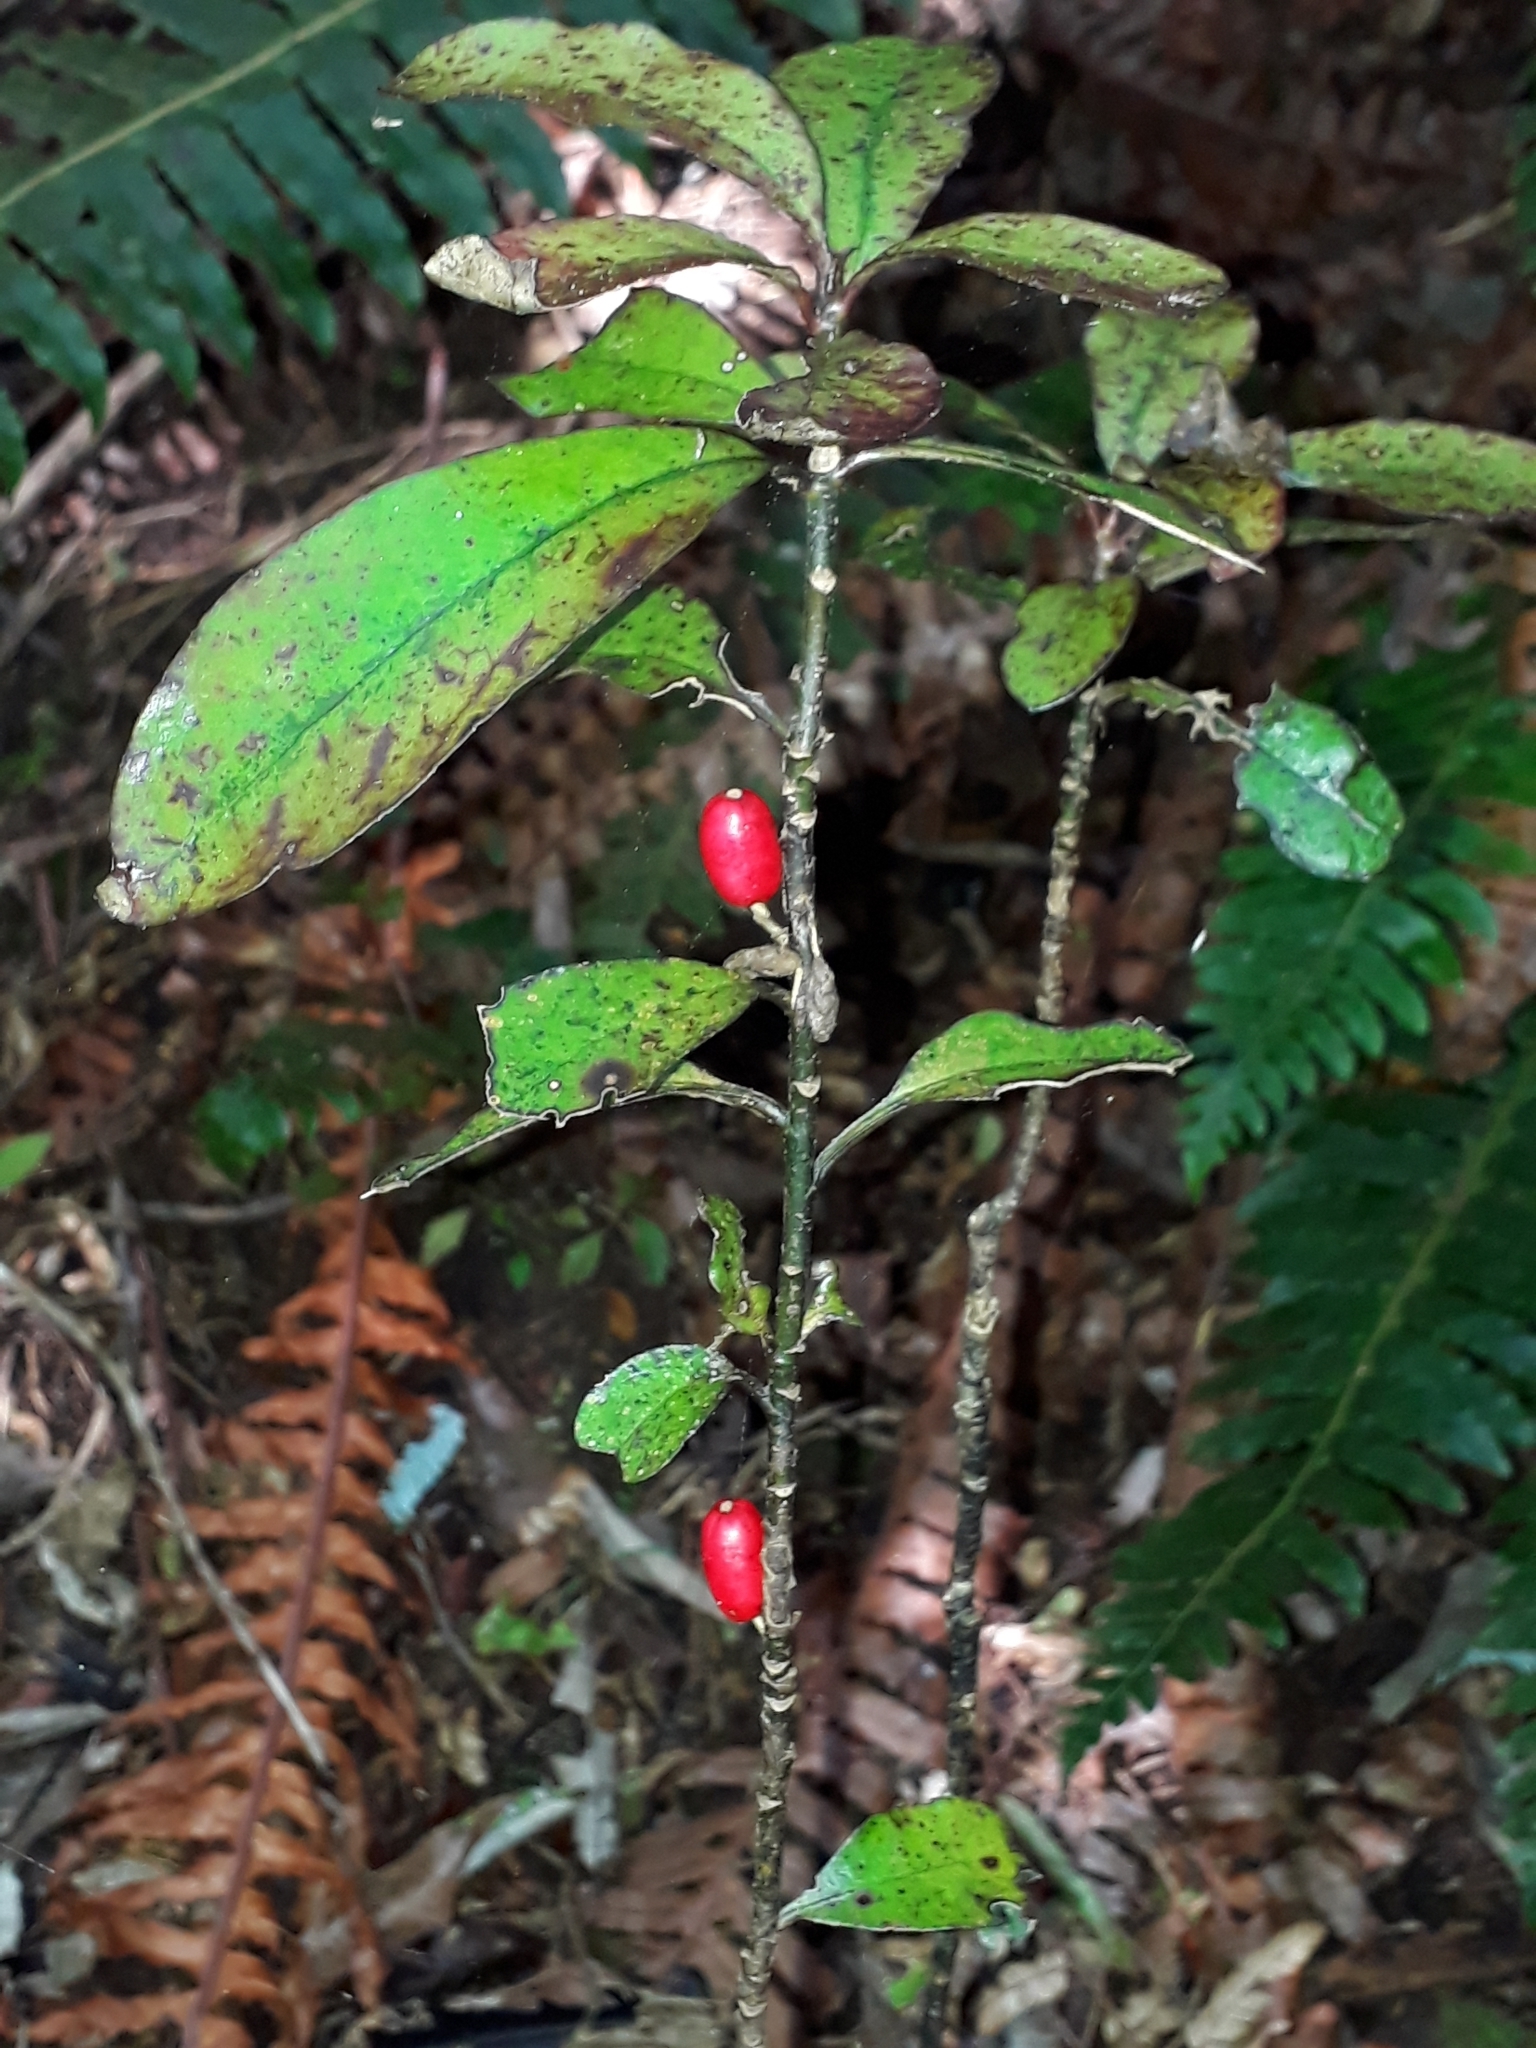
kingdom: Plantae
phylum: Tracheophyta
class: Magnoliopsida
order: Asterales
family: Alseuosmiaceae
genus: Alseuosmia
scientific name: Alseuosmia pusilla
